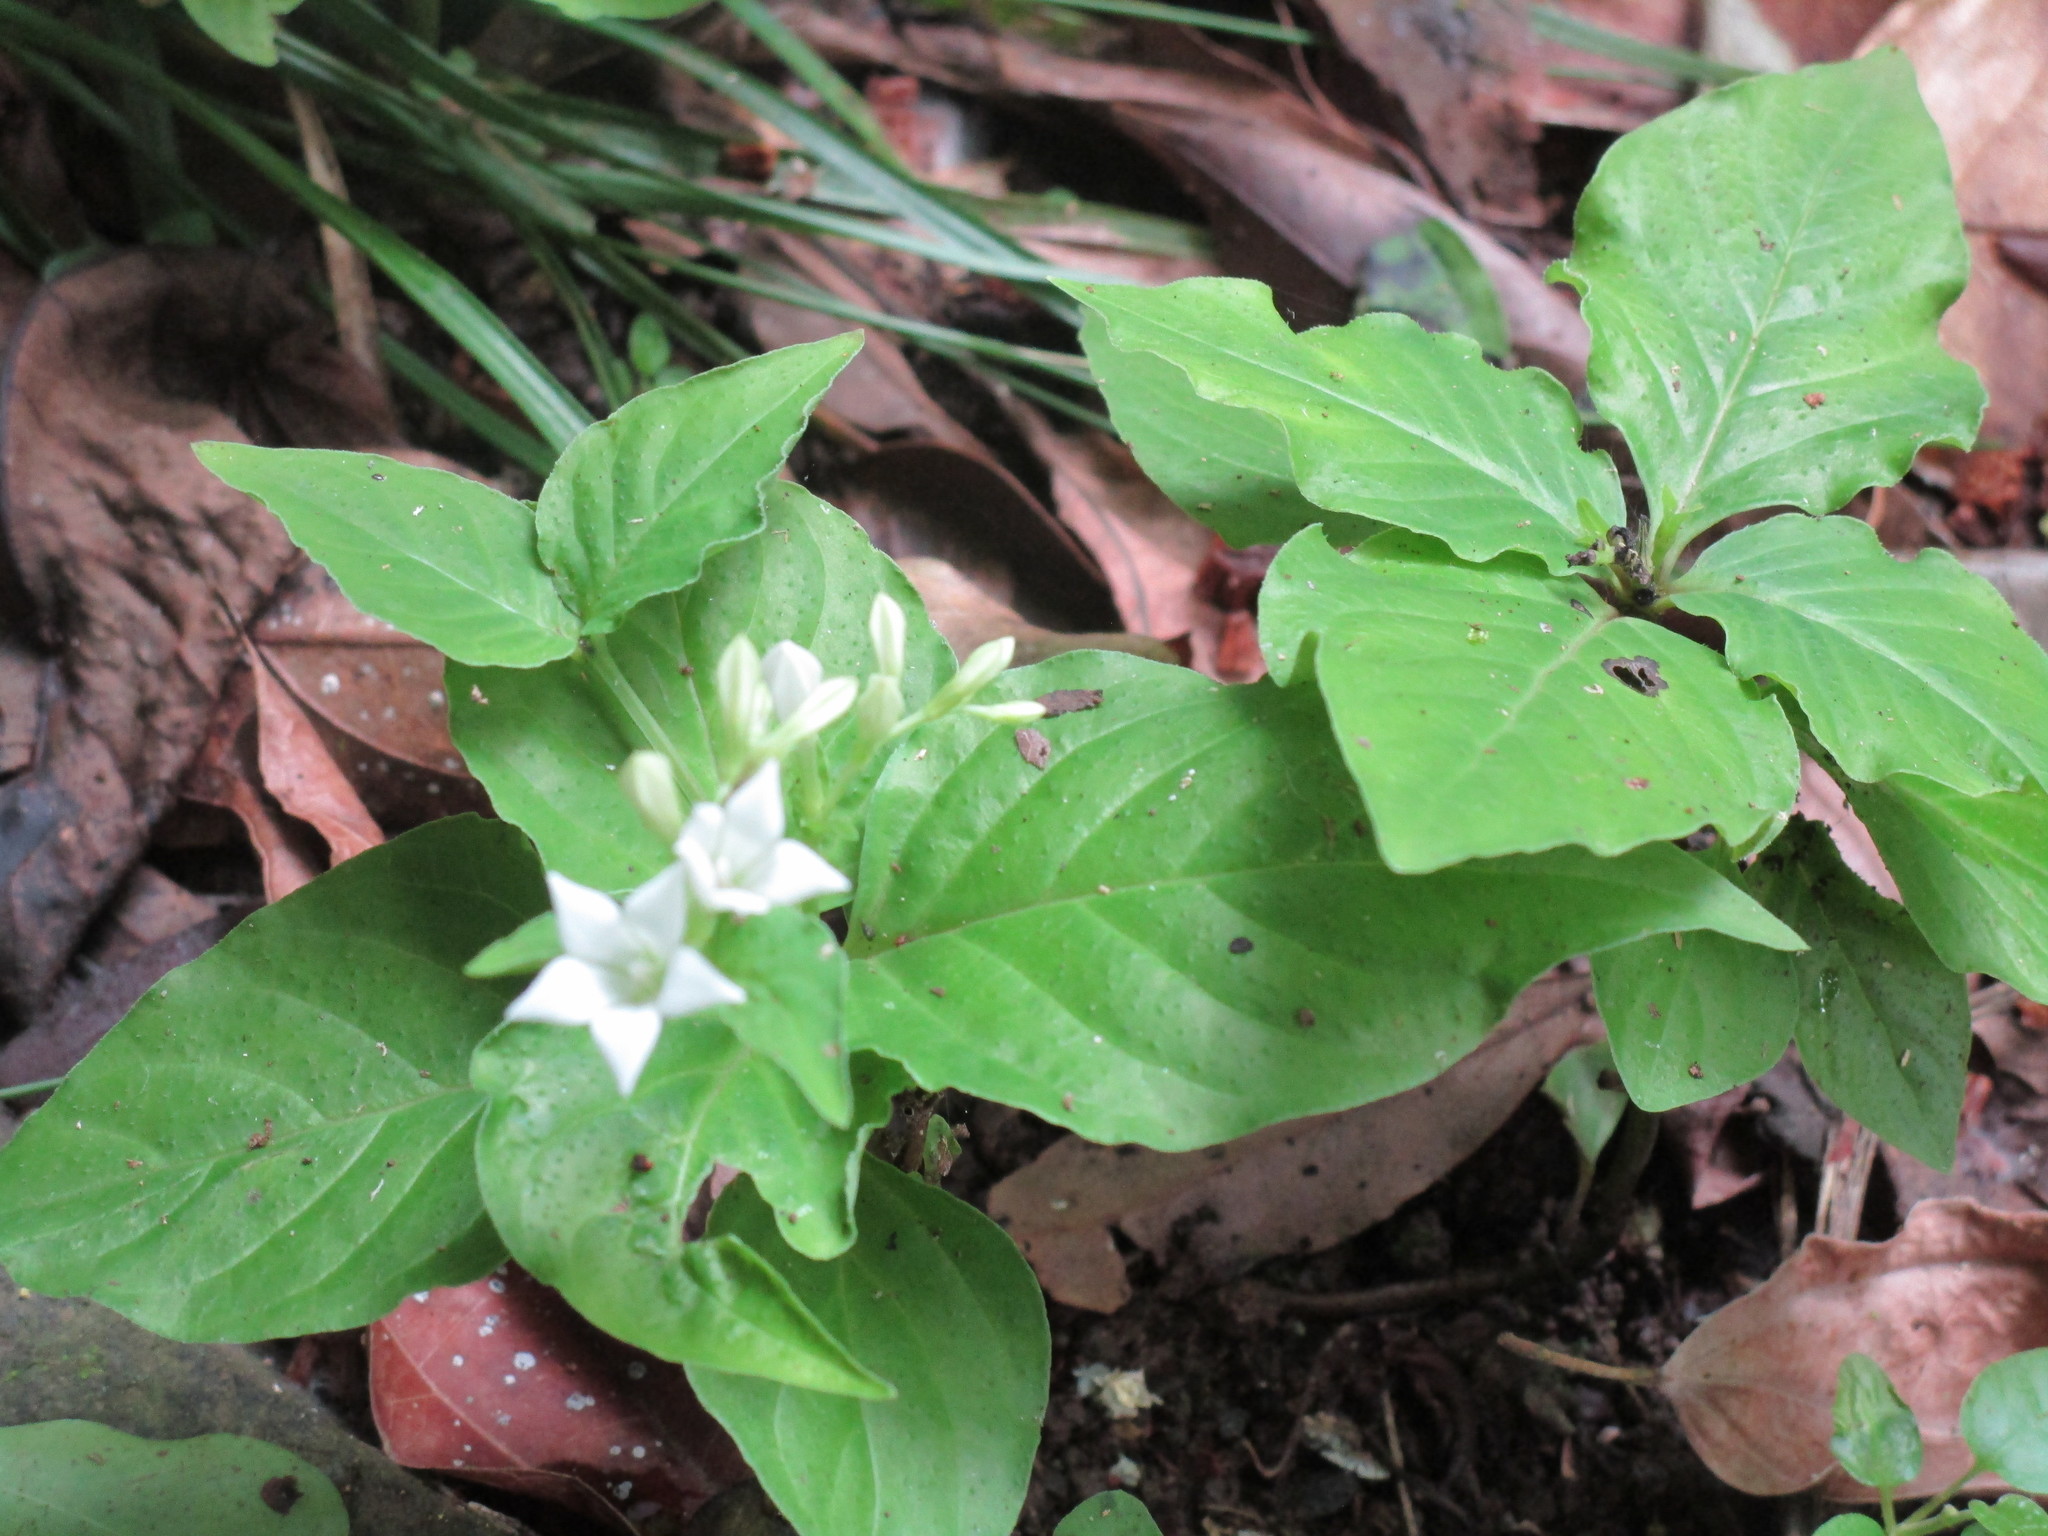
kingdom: Plantae
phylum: Tracheophyta
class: Magnoliopsida
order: Gentianales
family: Loganiaceae
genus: Spigelia
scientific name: Spigelia humboldtiana
